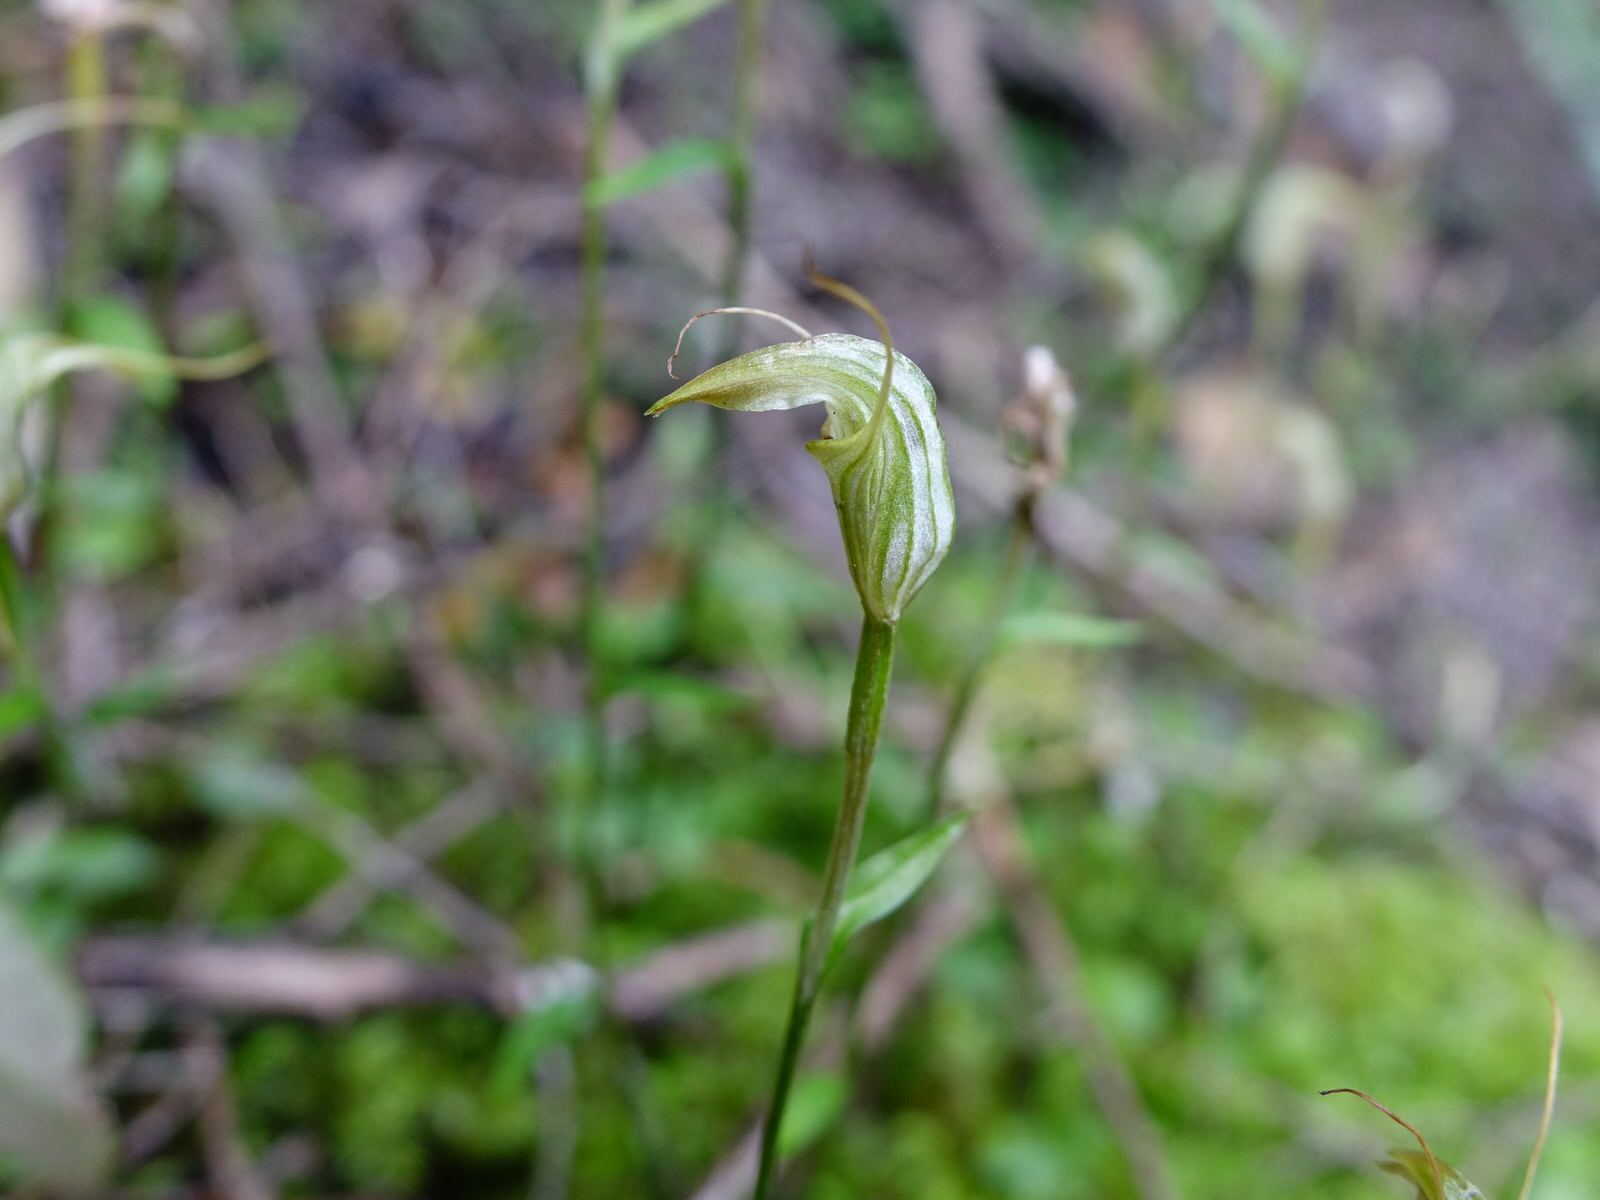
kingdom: Plantae
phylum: Tracheophyta
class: Liliopsida
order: Asparagales
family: Orchidaceae
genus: Pterostylis
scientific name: Pterostylis trullifolia
